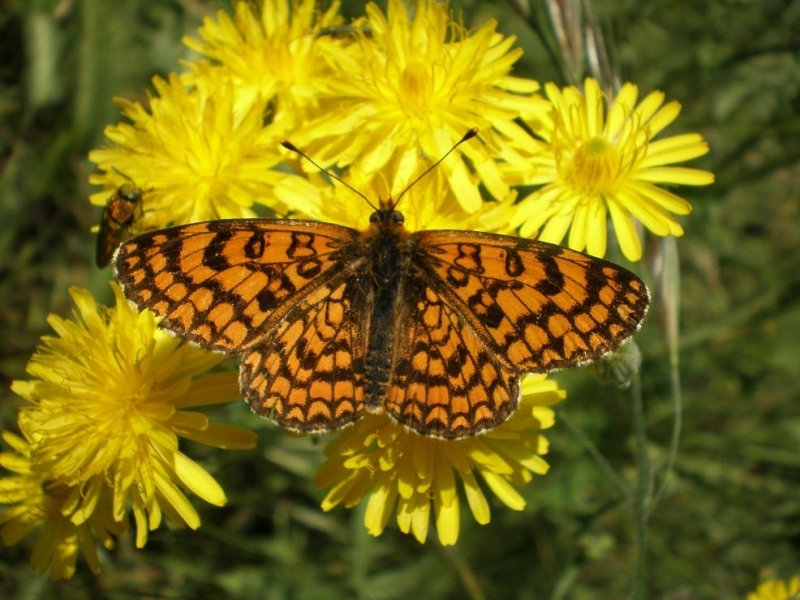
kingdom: Animalia
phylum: Arthropoda
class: Insecta
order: Lepidoptera
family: Nymphalidae
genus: Melitaea
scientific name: Melitaea deione
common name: Provençal fritillary
